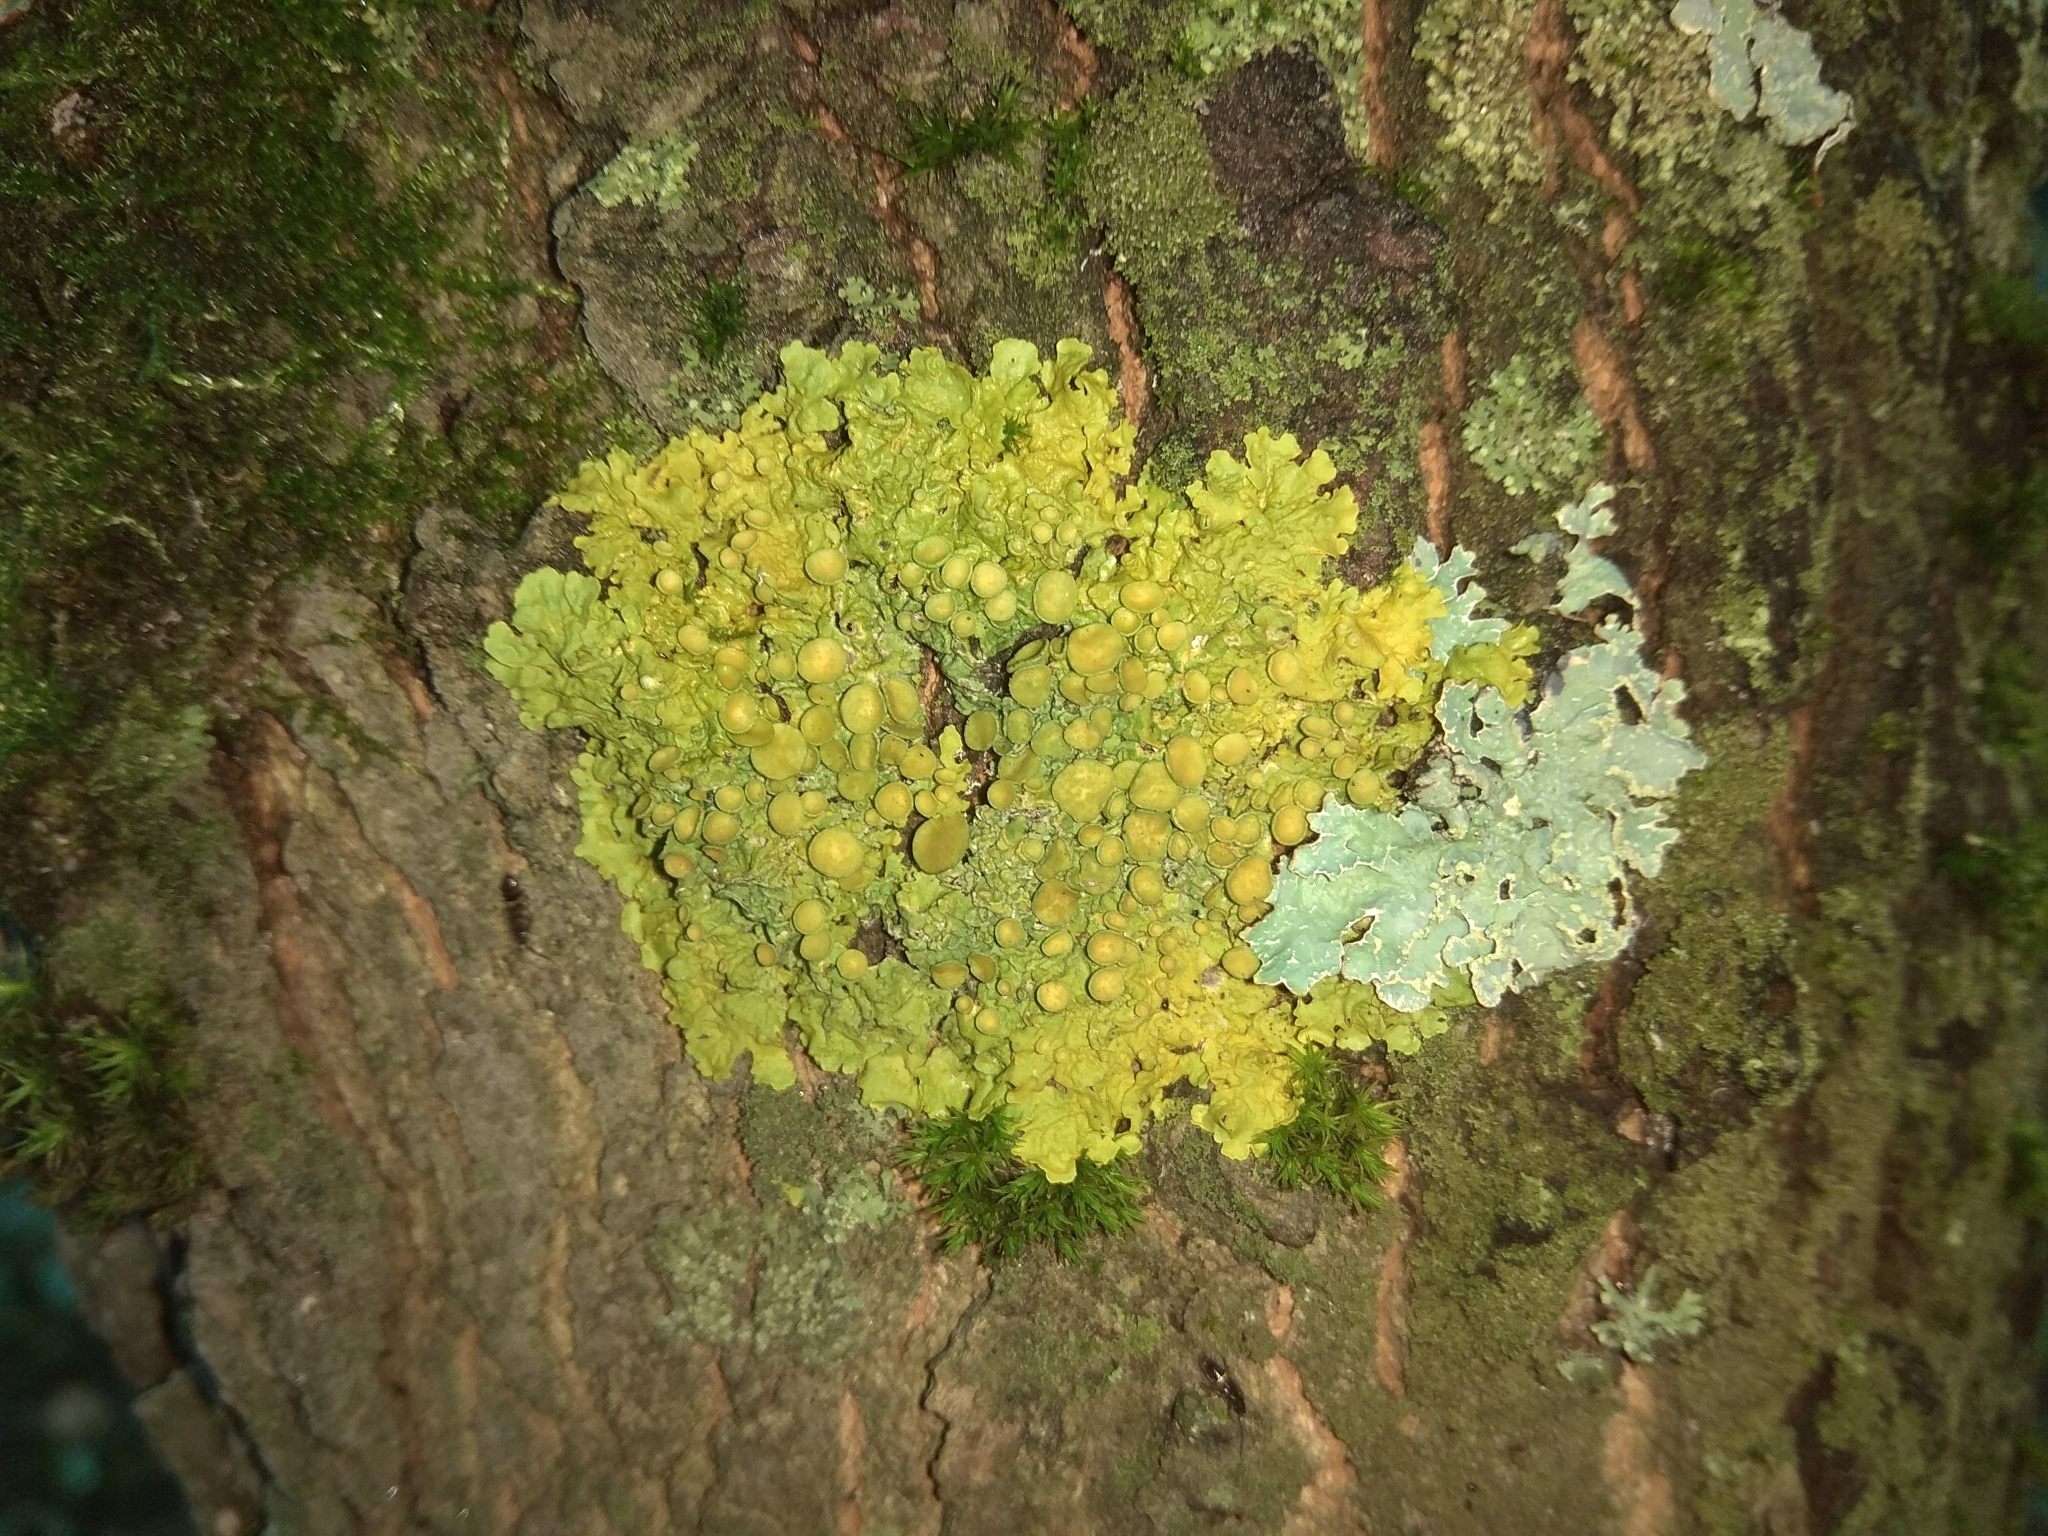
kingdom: Fungi
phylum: Ascomycota
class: Lecanoromycetes
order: Teloschistales
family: Teloschistaceae
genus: Xanthoria
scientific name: Xanthoria parietina
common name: Common orange lichen
